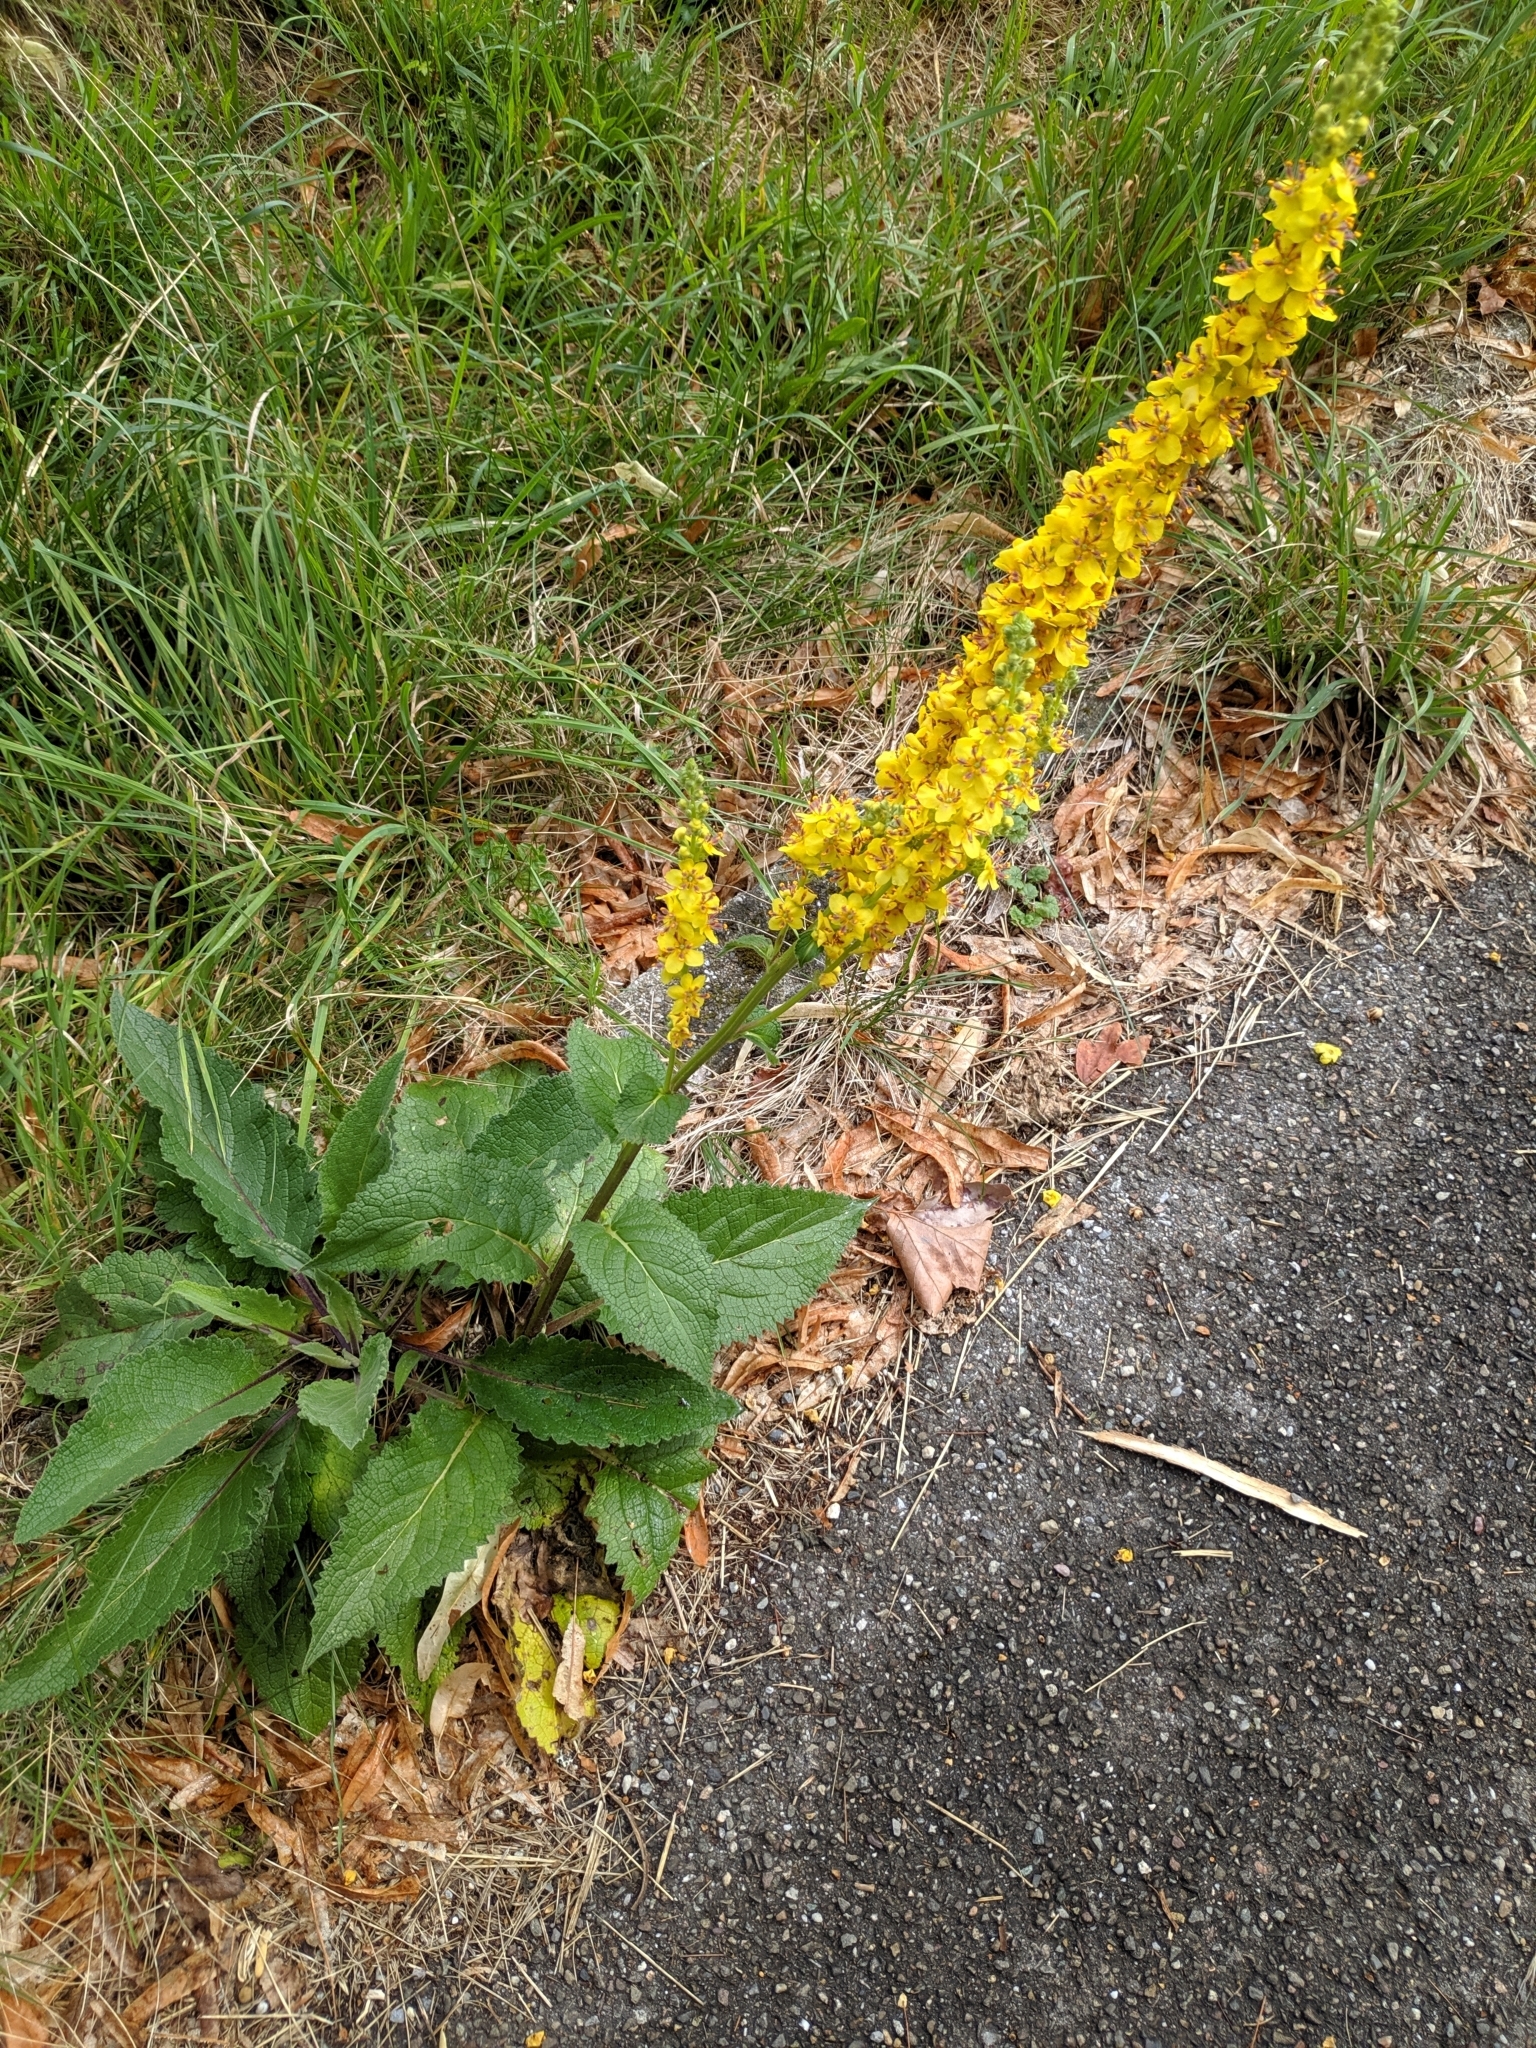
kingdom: Plantae
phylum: Tracheophyta
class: Magnoliopsida
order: Lamiales
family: Scrophulariaceae
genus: Verbascum
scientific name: Verbascum nigrum
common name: Dark mullein
